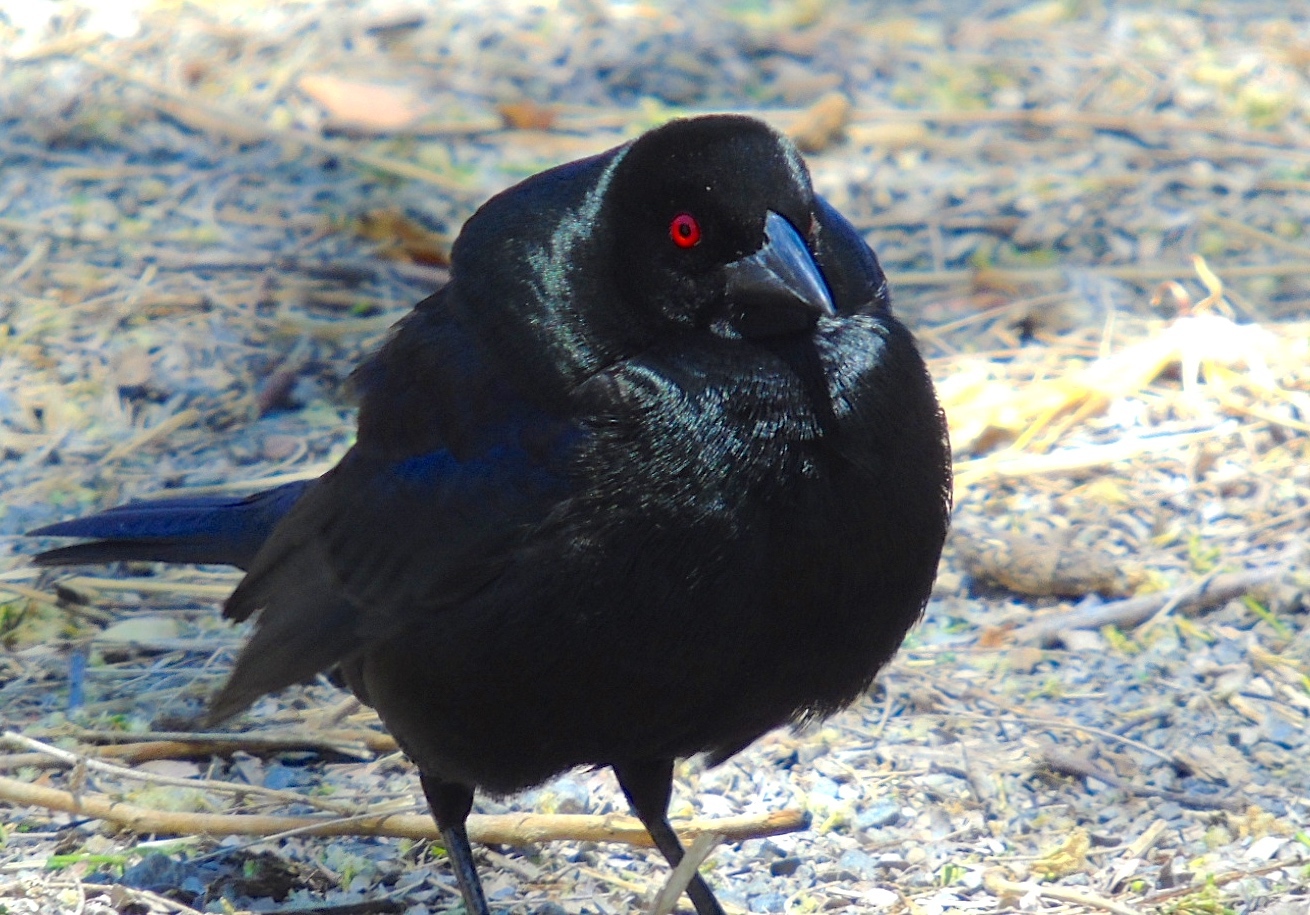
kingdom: Animalia
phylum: Chordata
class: Aves
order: Passeriformes
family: Icteridae
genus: Molothrus
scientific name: Molothrus aeneus
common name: Bronzed cowbird
